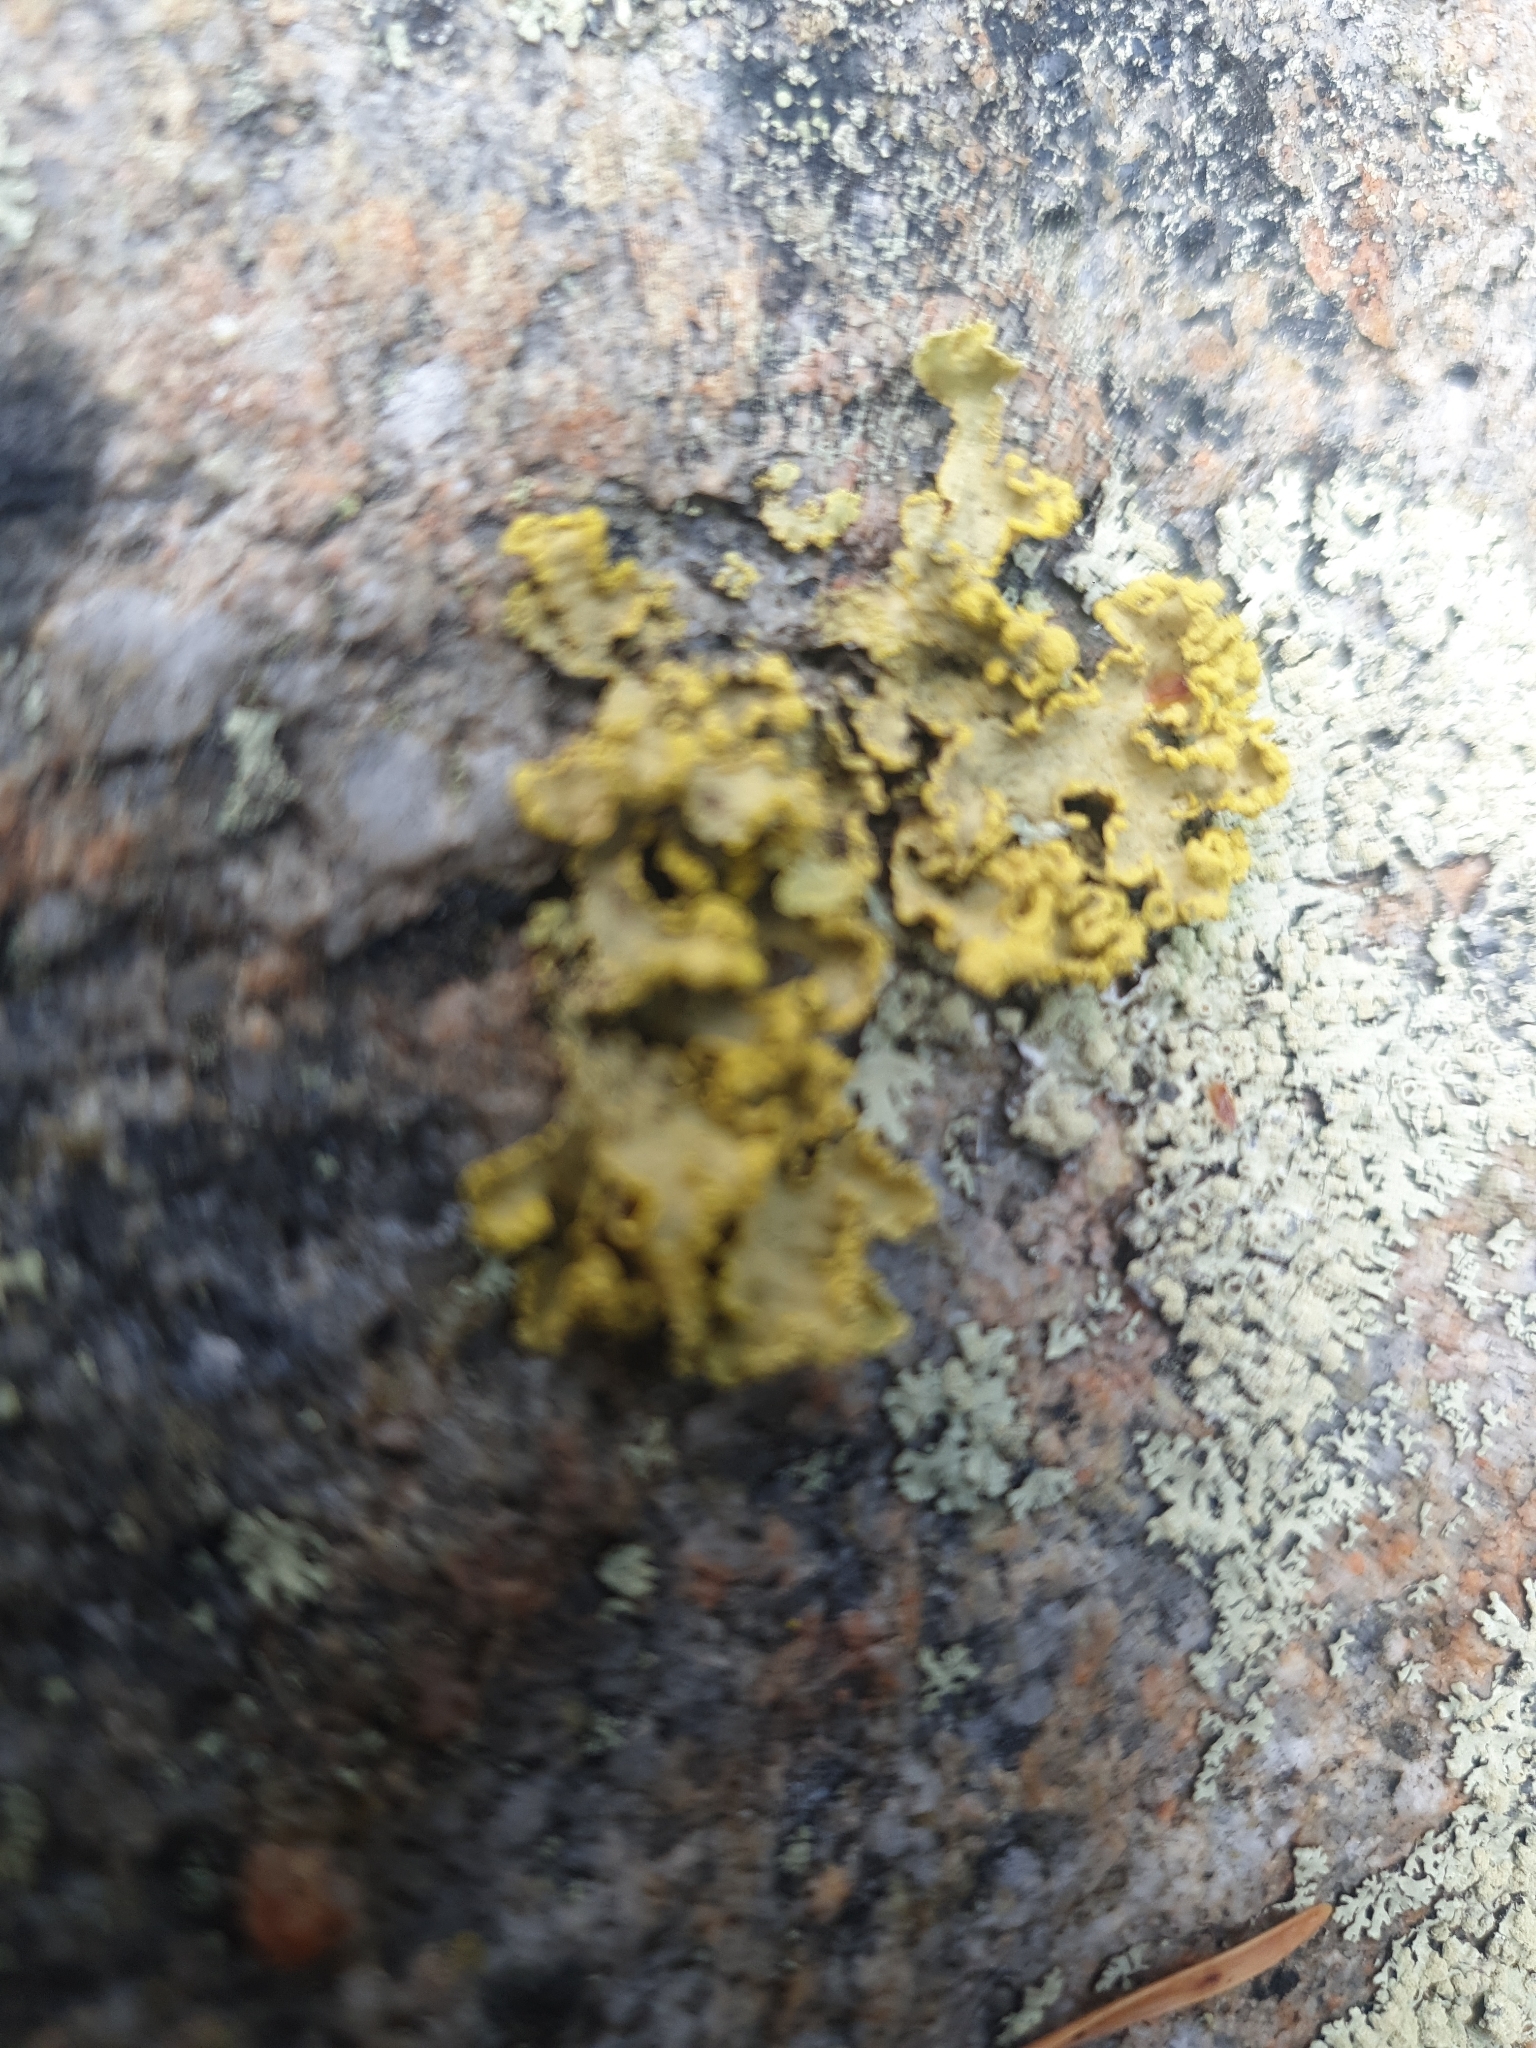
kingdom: Fungi
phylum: Ascomycota
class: Lecanoromycetes
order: Lecanorales
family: Parmeliaceae
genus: Vulpicida
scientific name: Vulpicida pinastri
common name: Powdered sunshine lichen
